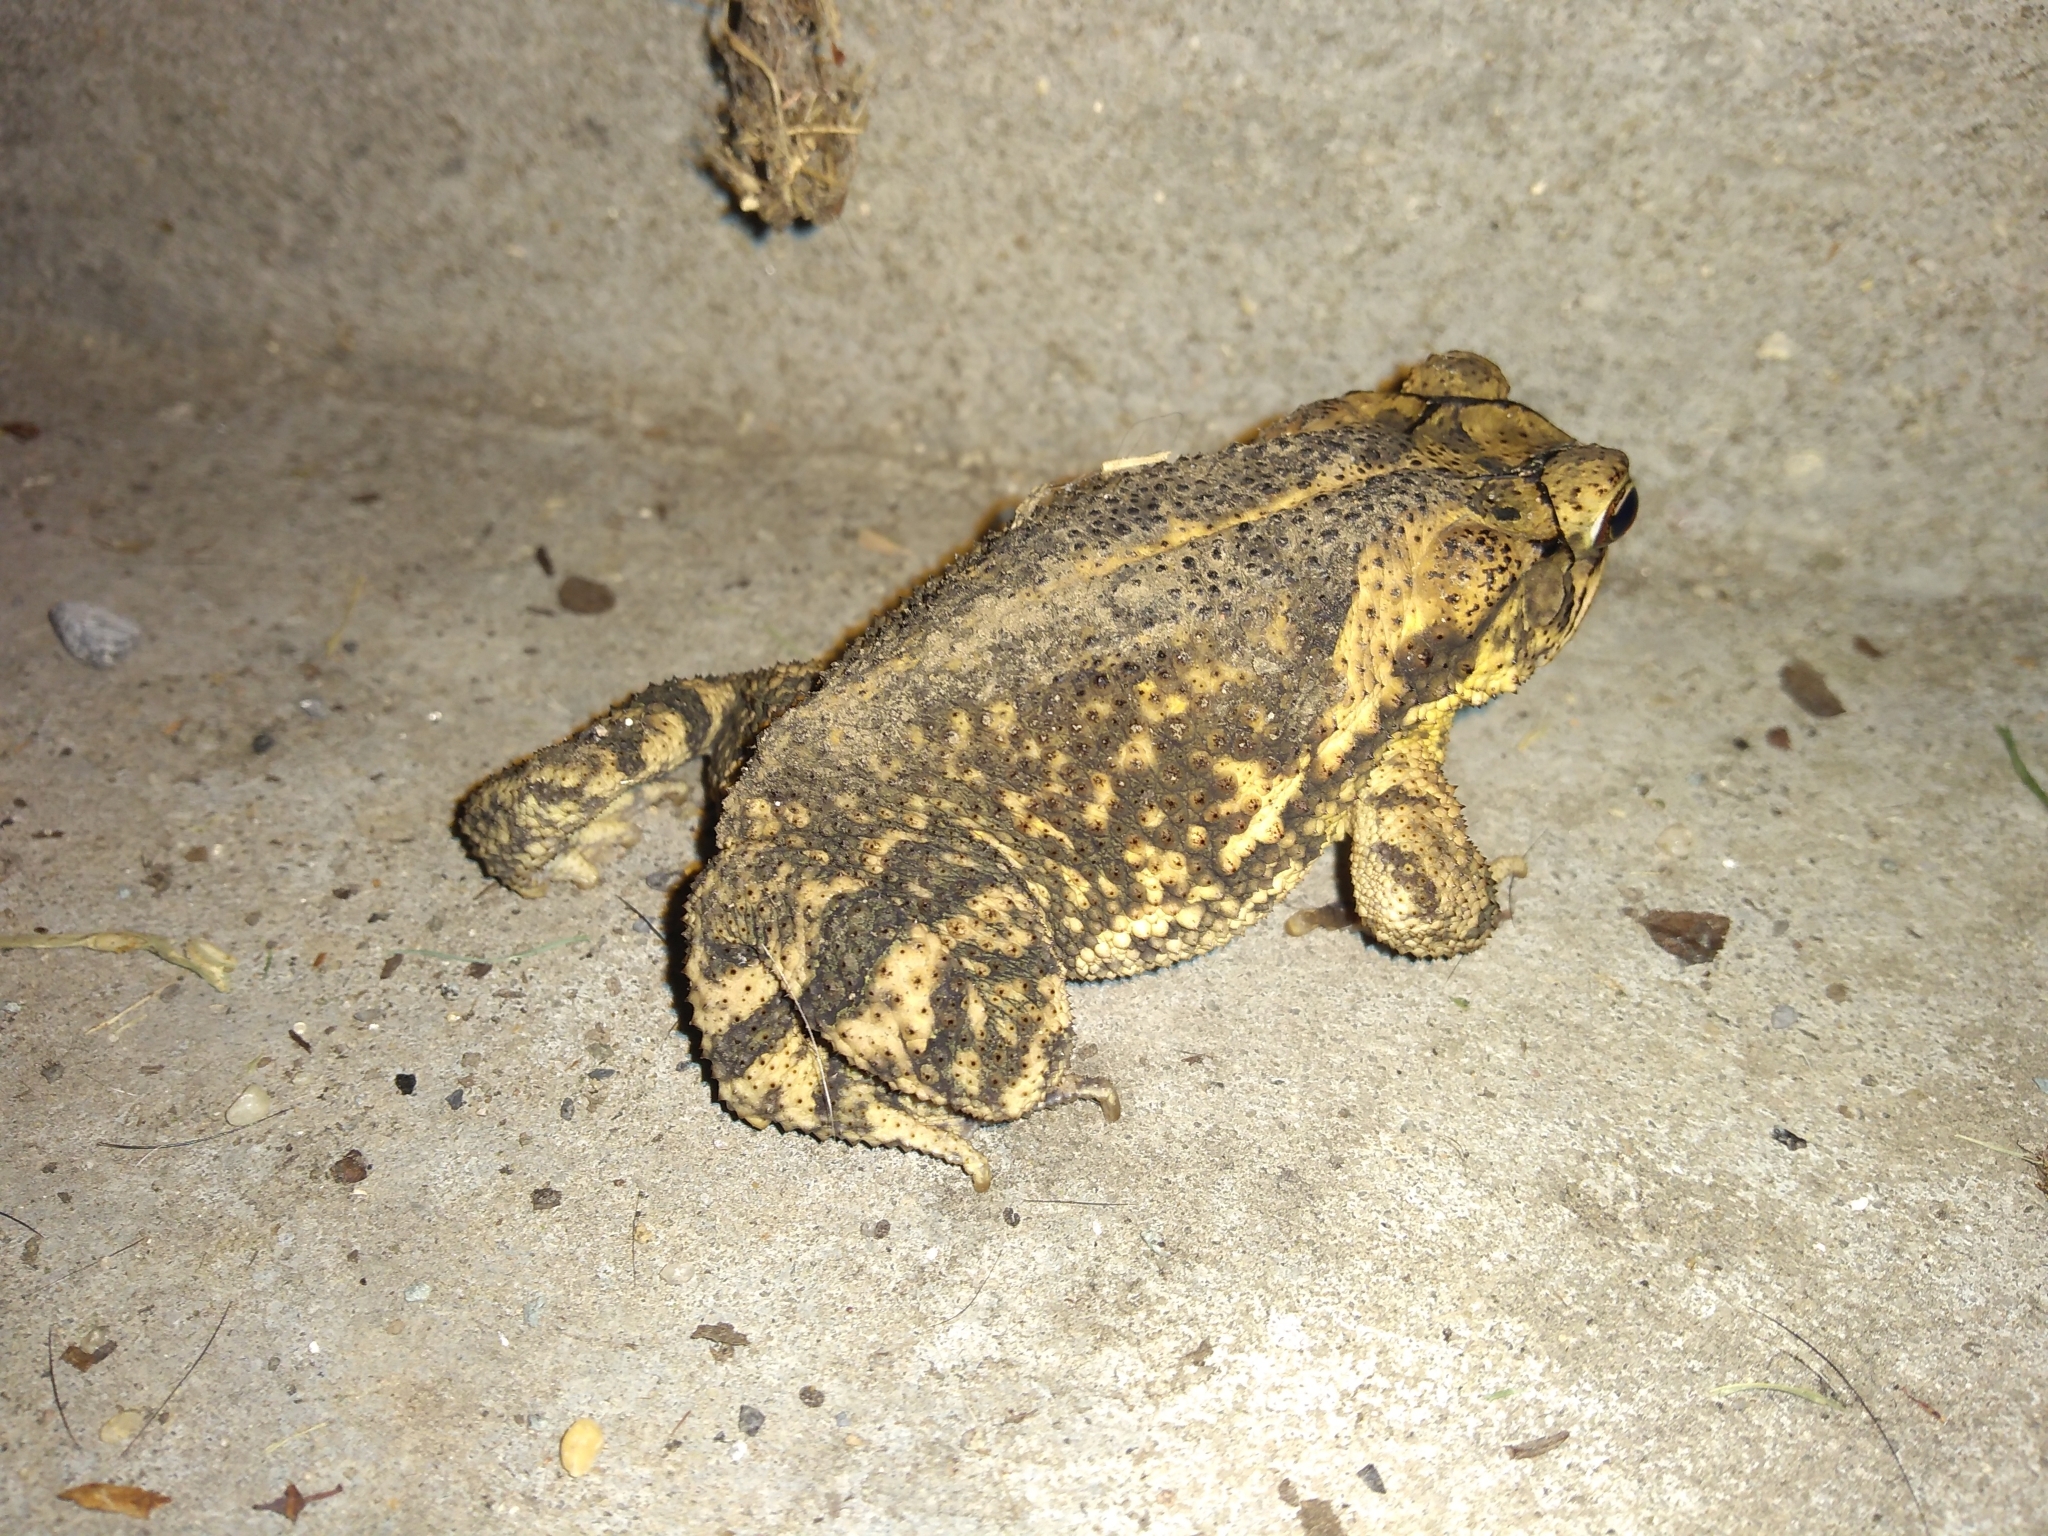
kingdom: Animalia
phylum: Chordata
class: Amphibia
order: Anura
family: Bufonidae
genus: Incilius
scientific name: Incilius nebulifer
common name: Gulf coast toad
